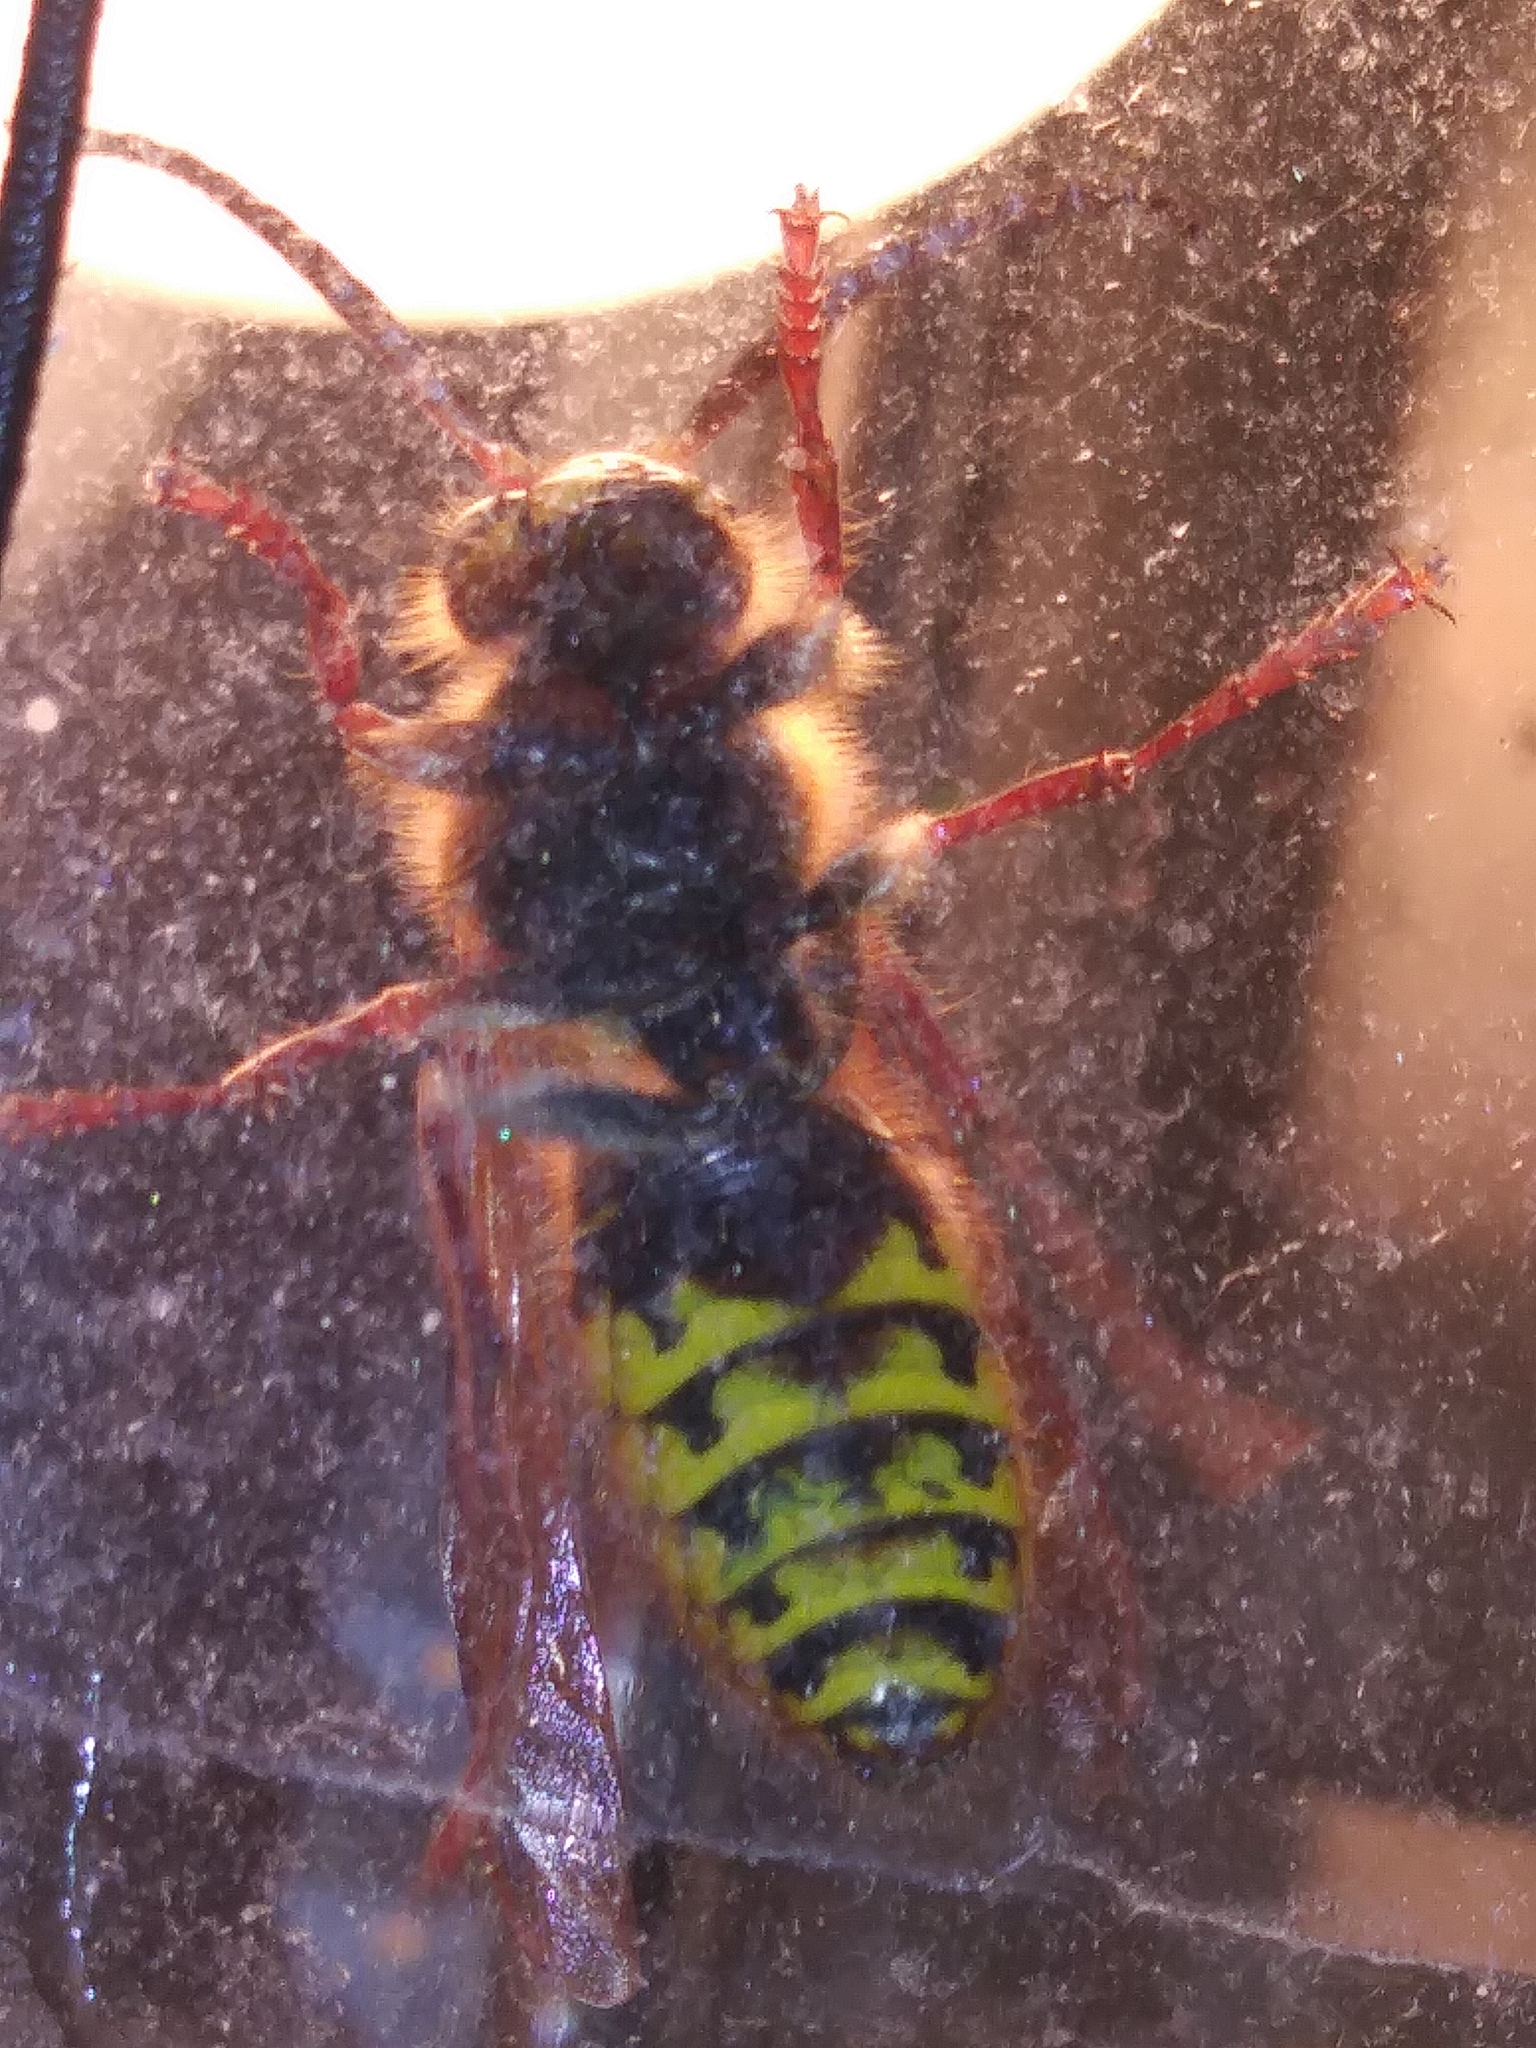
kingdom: Animalia
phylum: Arthropoda
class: Insecta
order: Hymenoptera
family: Vespidae
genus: Vespa
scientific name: Vespa crabro
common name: Hornet
